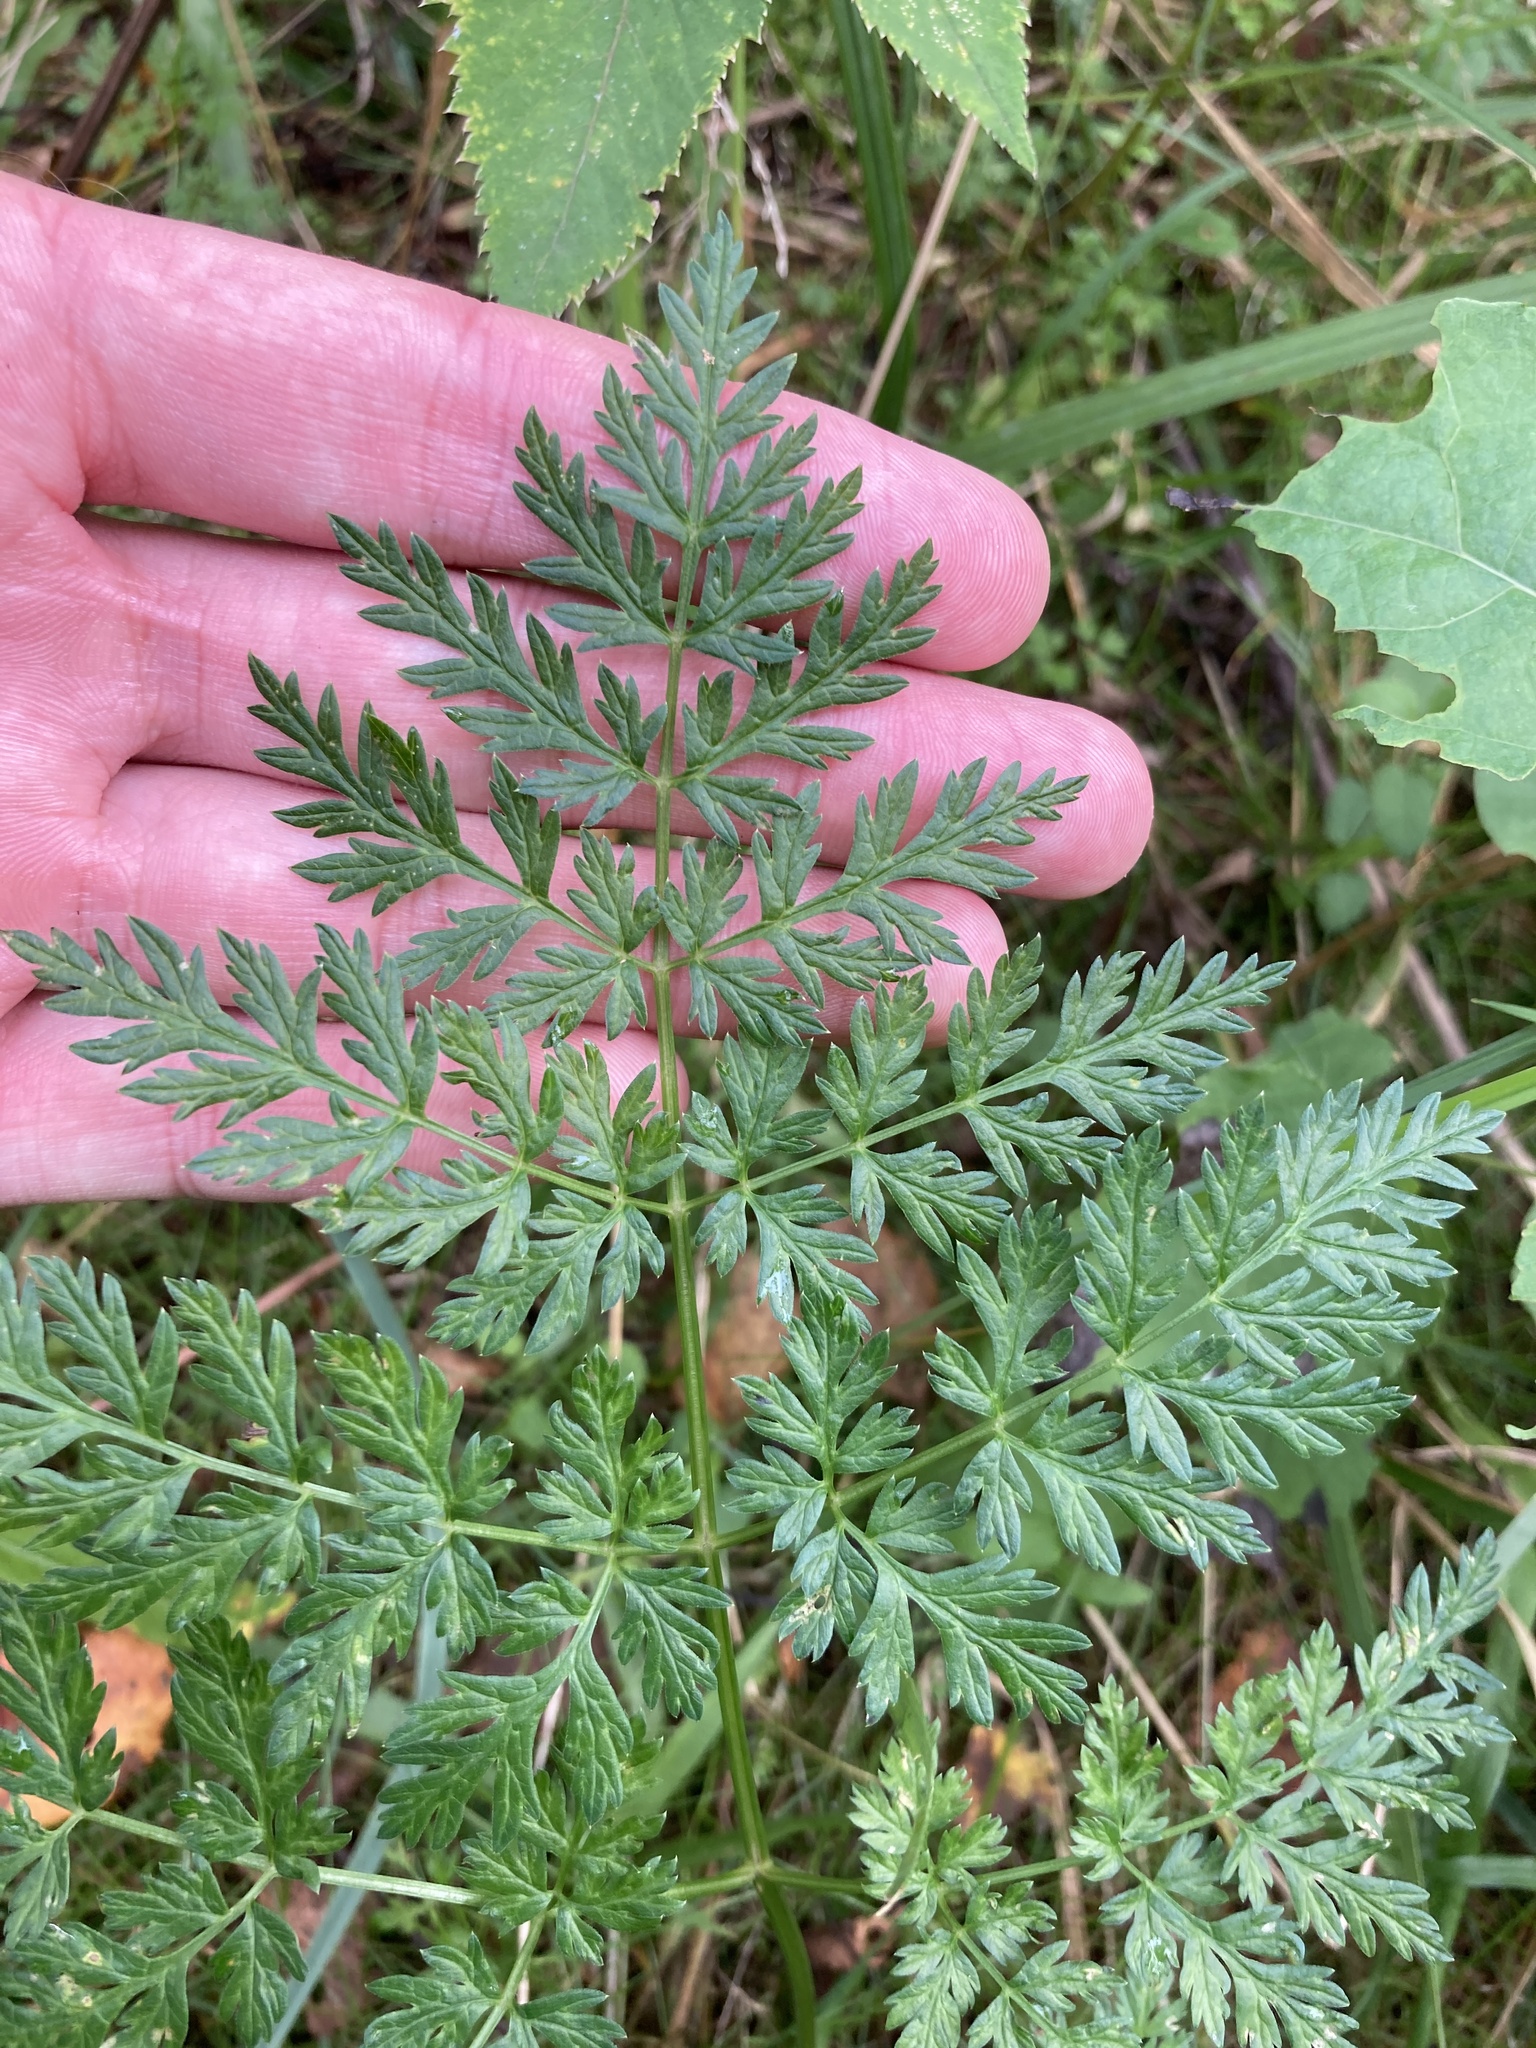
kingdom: Plantae
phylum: Tracheophyta
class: Magnoliopsida
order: Apiales
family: Apiaceae
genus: Anthriscus
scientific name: Anthriscus sylvestris
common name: Cow parsley
